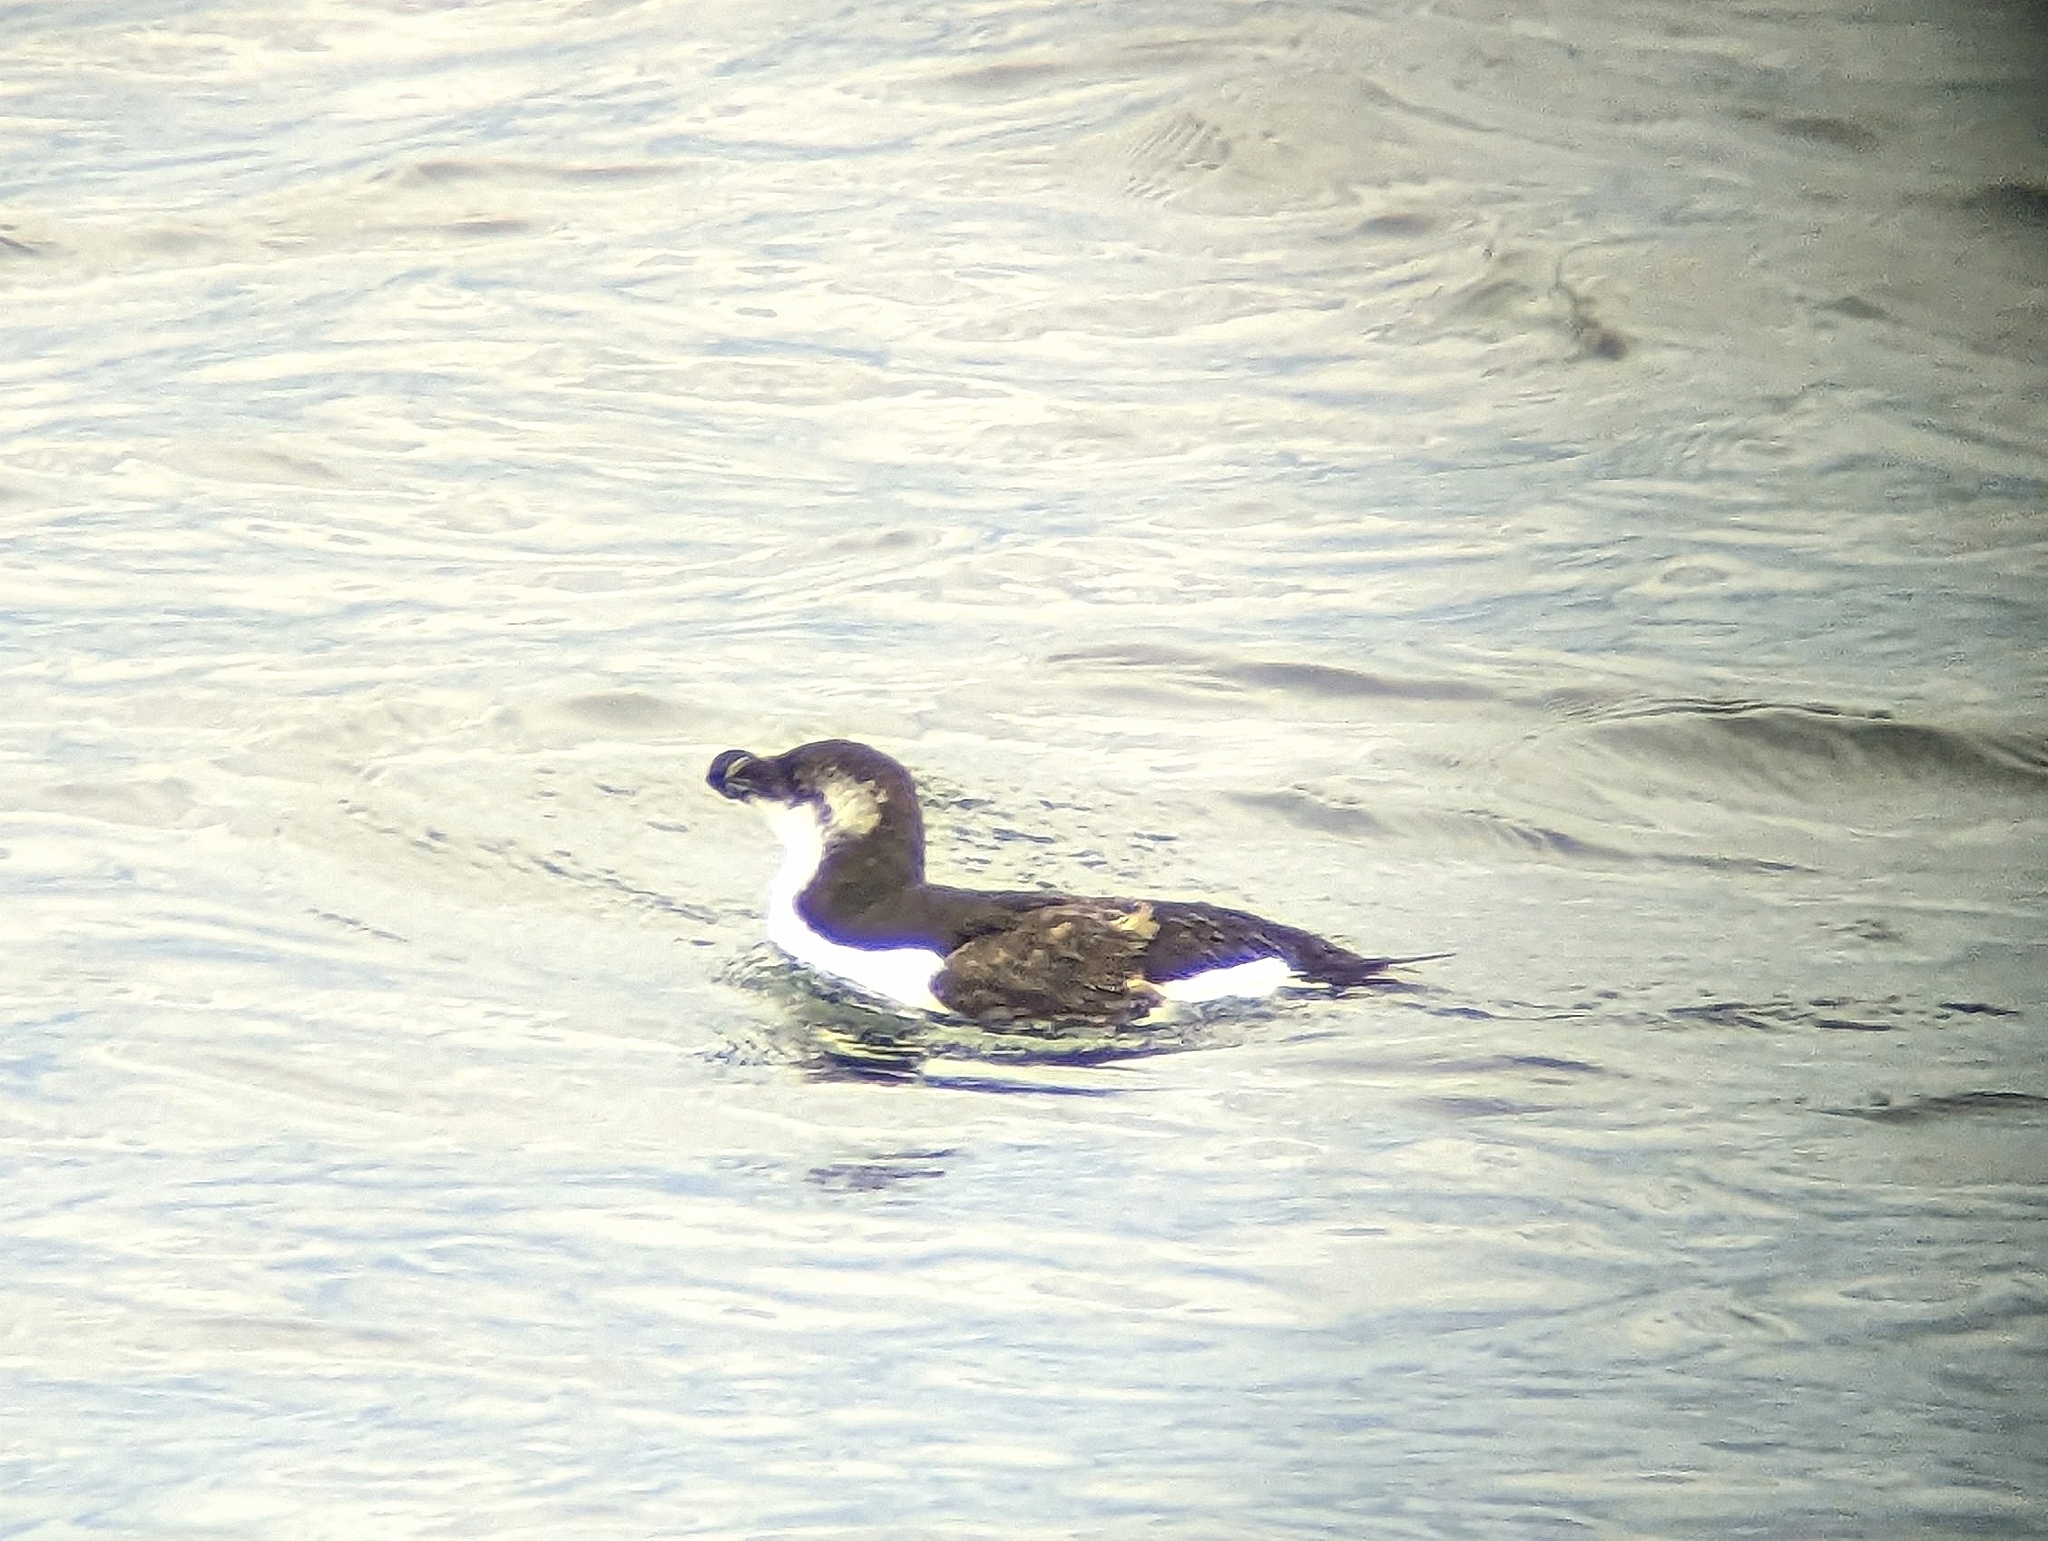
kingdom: Animalia
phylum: Chordata
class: Aves
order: Charadriiformes
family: Alcidae
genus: Alca
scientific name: Alca torda
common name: Razorbill
